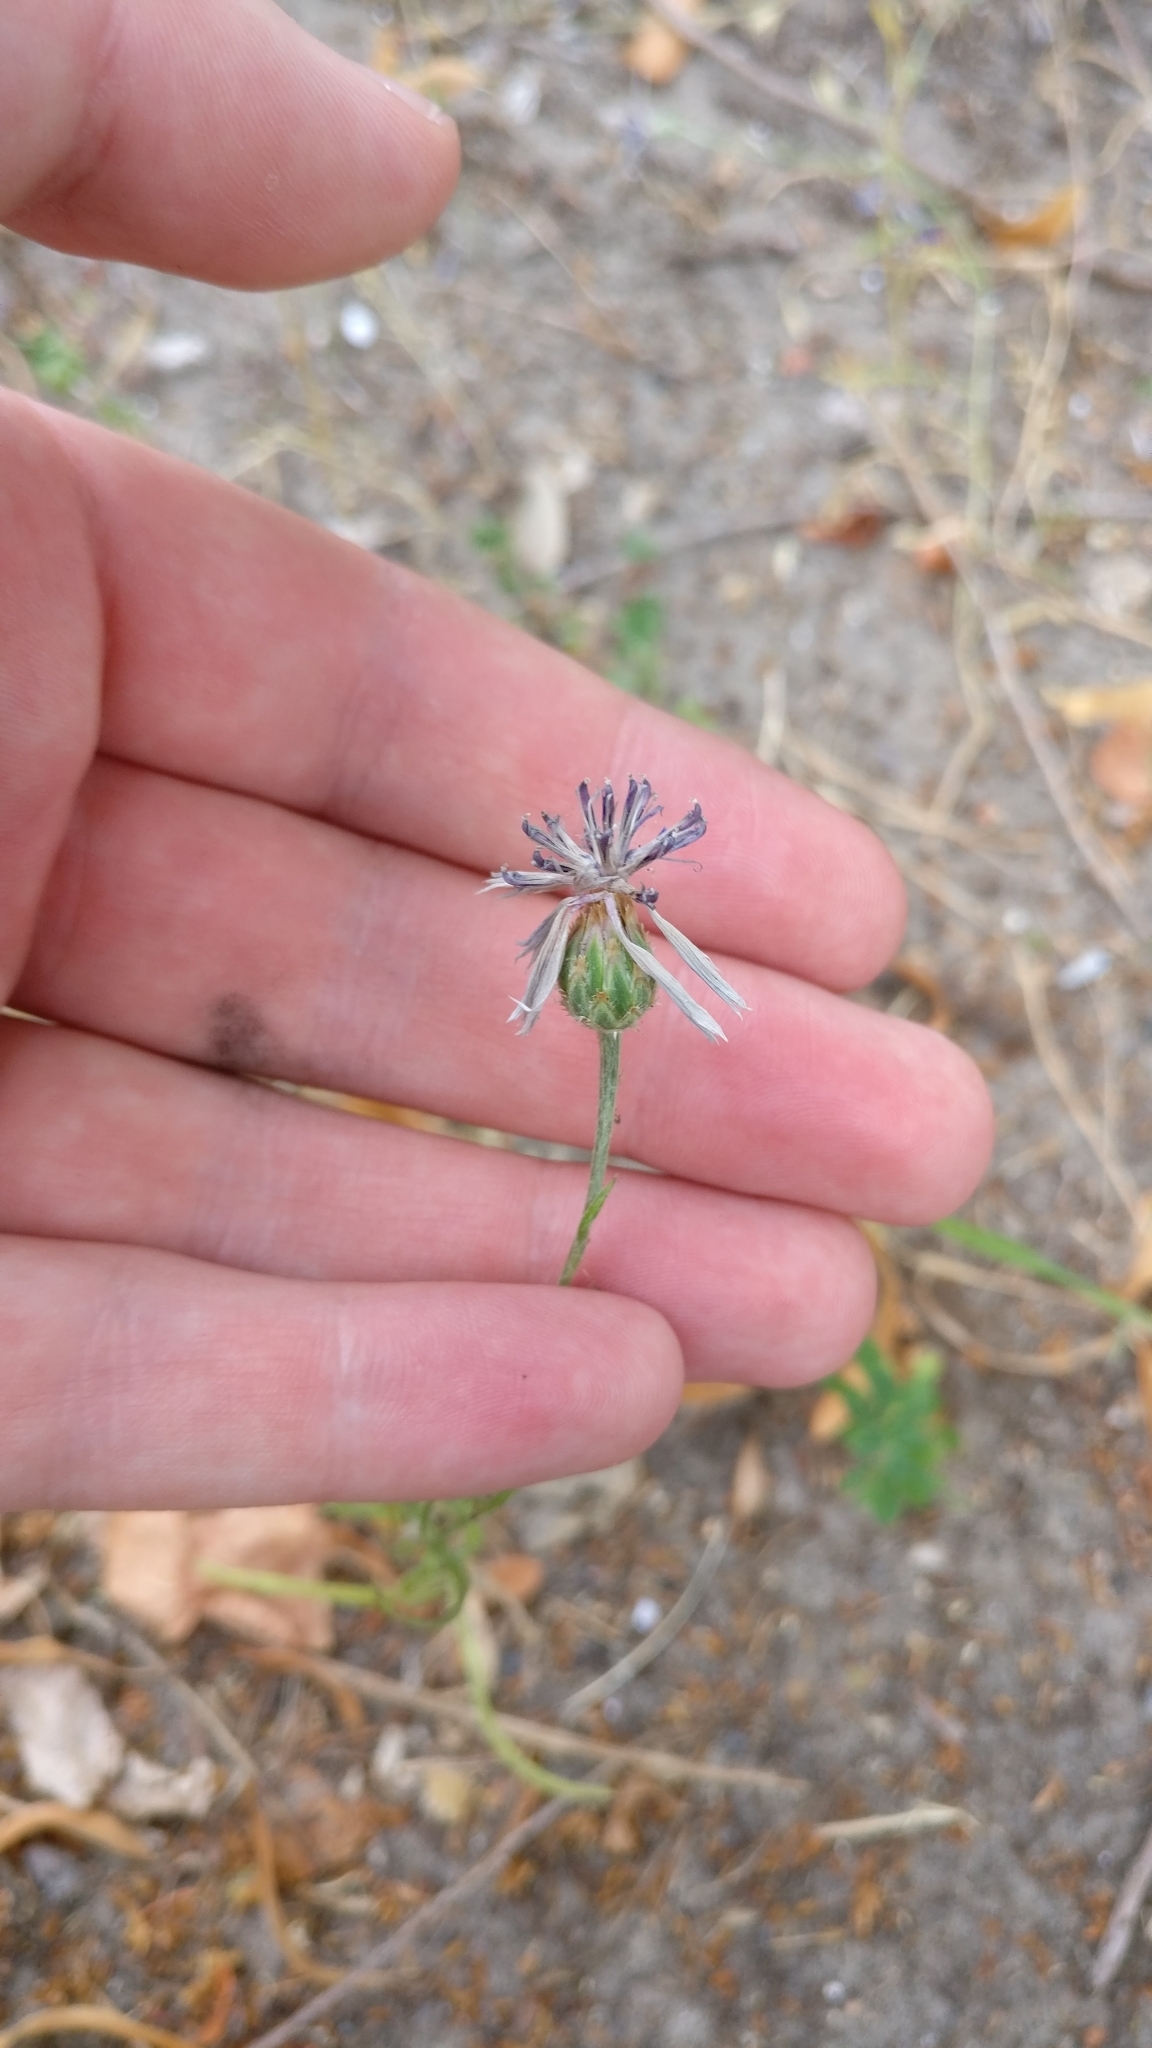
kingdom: Plantae
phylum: Tracheophyta
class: Magnoliopsida
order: Asterales
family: Asteraceae
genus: Centaurea
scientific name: Centaurea cyanus
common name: Cornflower
